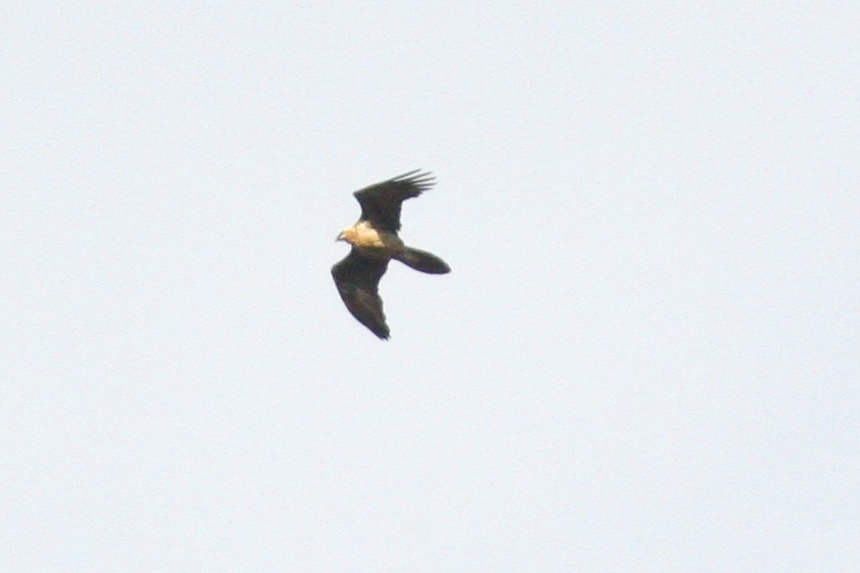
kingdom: Animalia
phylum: Chordata
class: Aves
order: Accipitriformes
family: Accipitridae
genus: Gypaetus
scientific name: Gypaetus barbatus
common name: Bearded vulture
